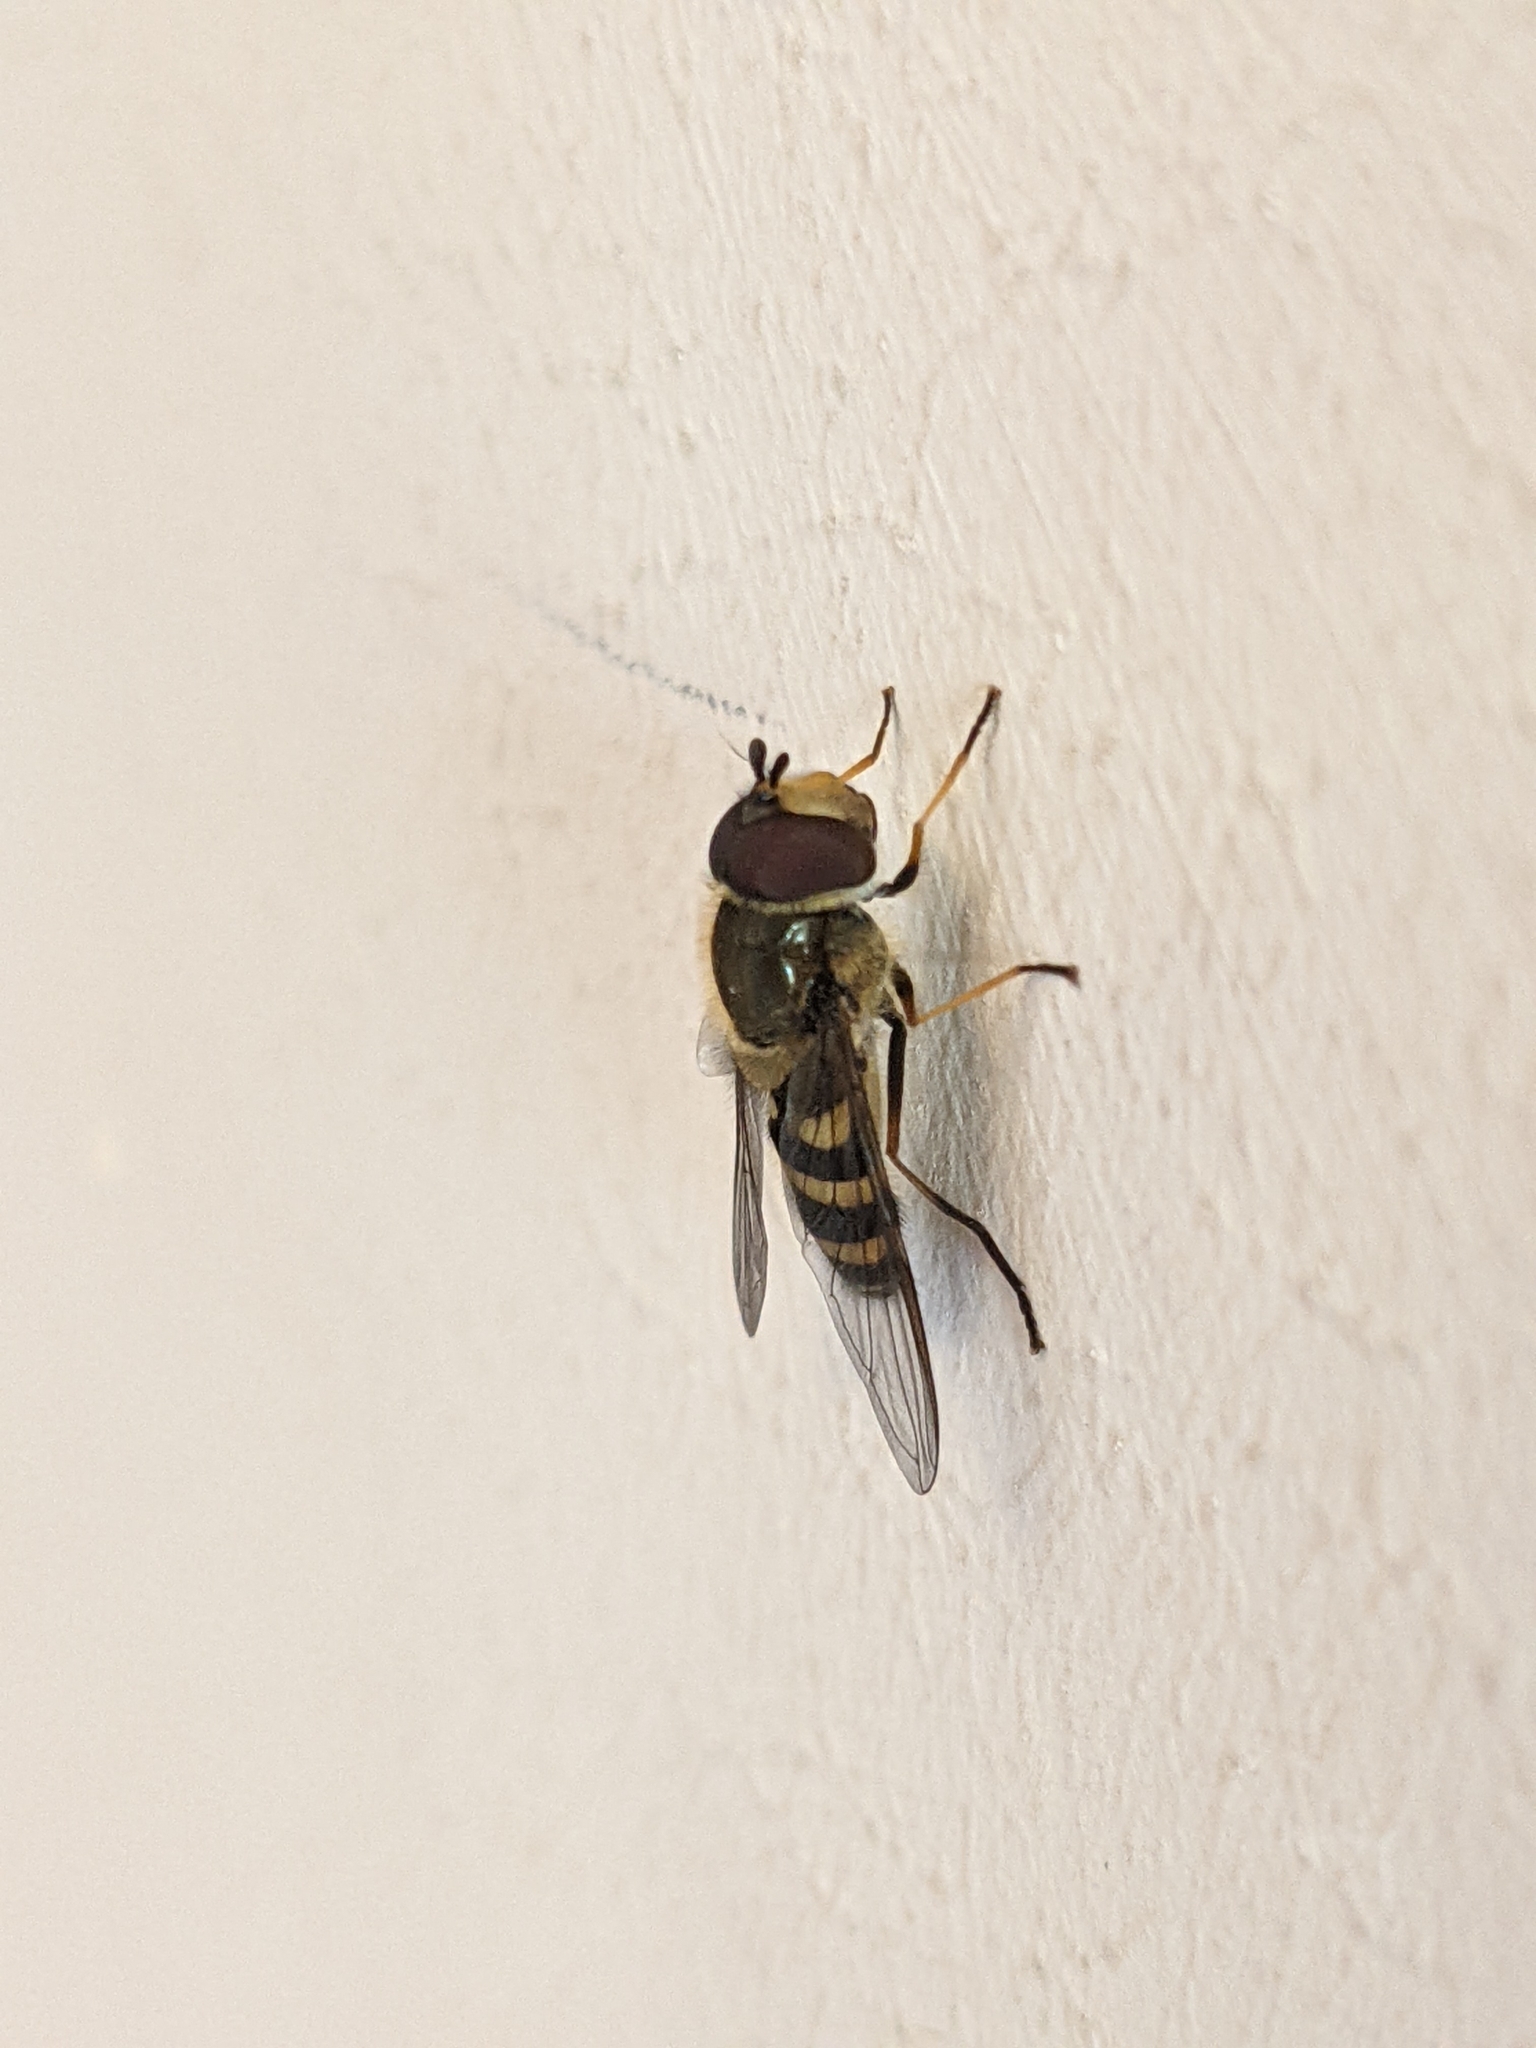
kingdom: Animalia
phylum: Arthropoda
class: Insecta
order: Diptera
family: Syrphidae
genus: Syrphus
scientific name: Syrphus
